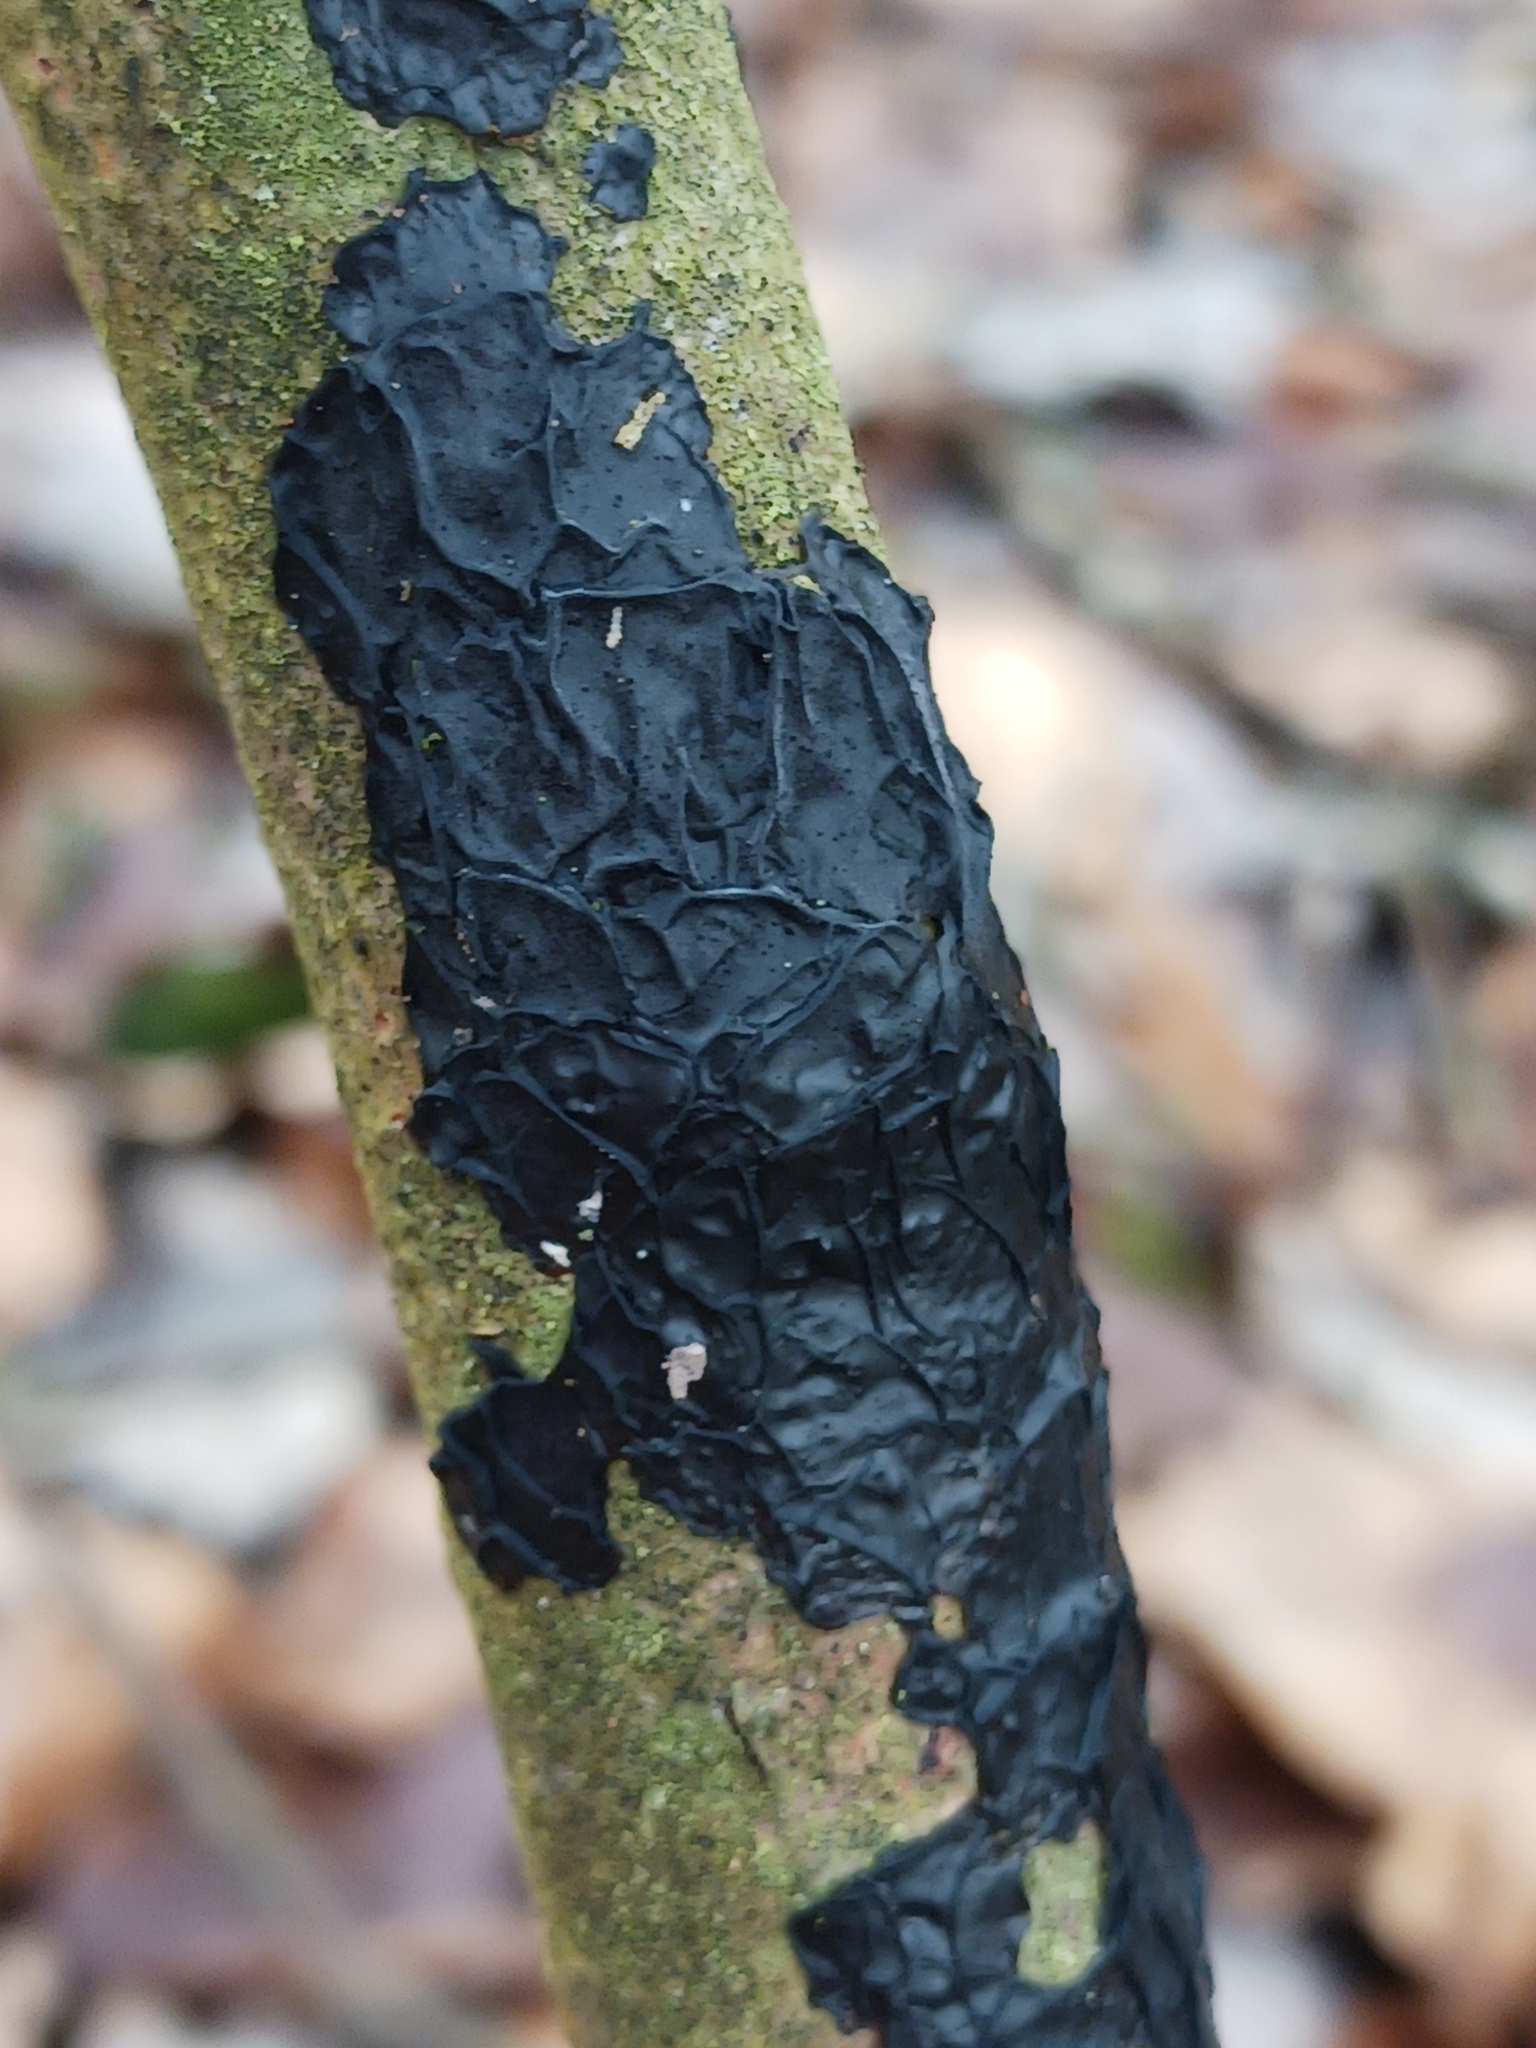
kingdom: Fungi
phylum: Basidiomycota
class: Agaricomycetes
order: Auriculariales
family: Auriculariaceae
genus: Exidia
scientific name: Exidia nigricans
